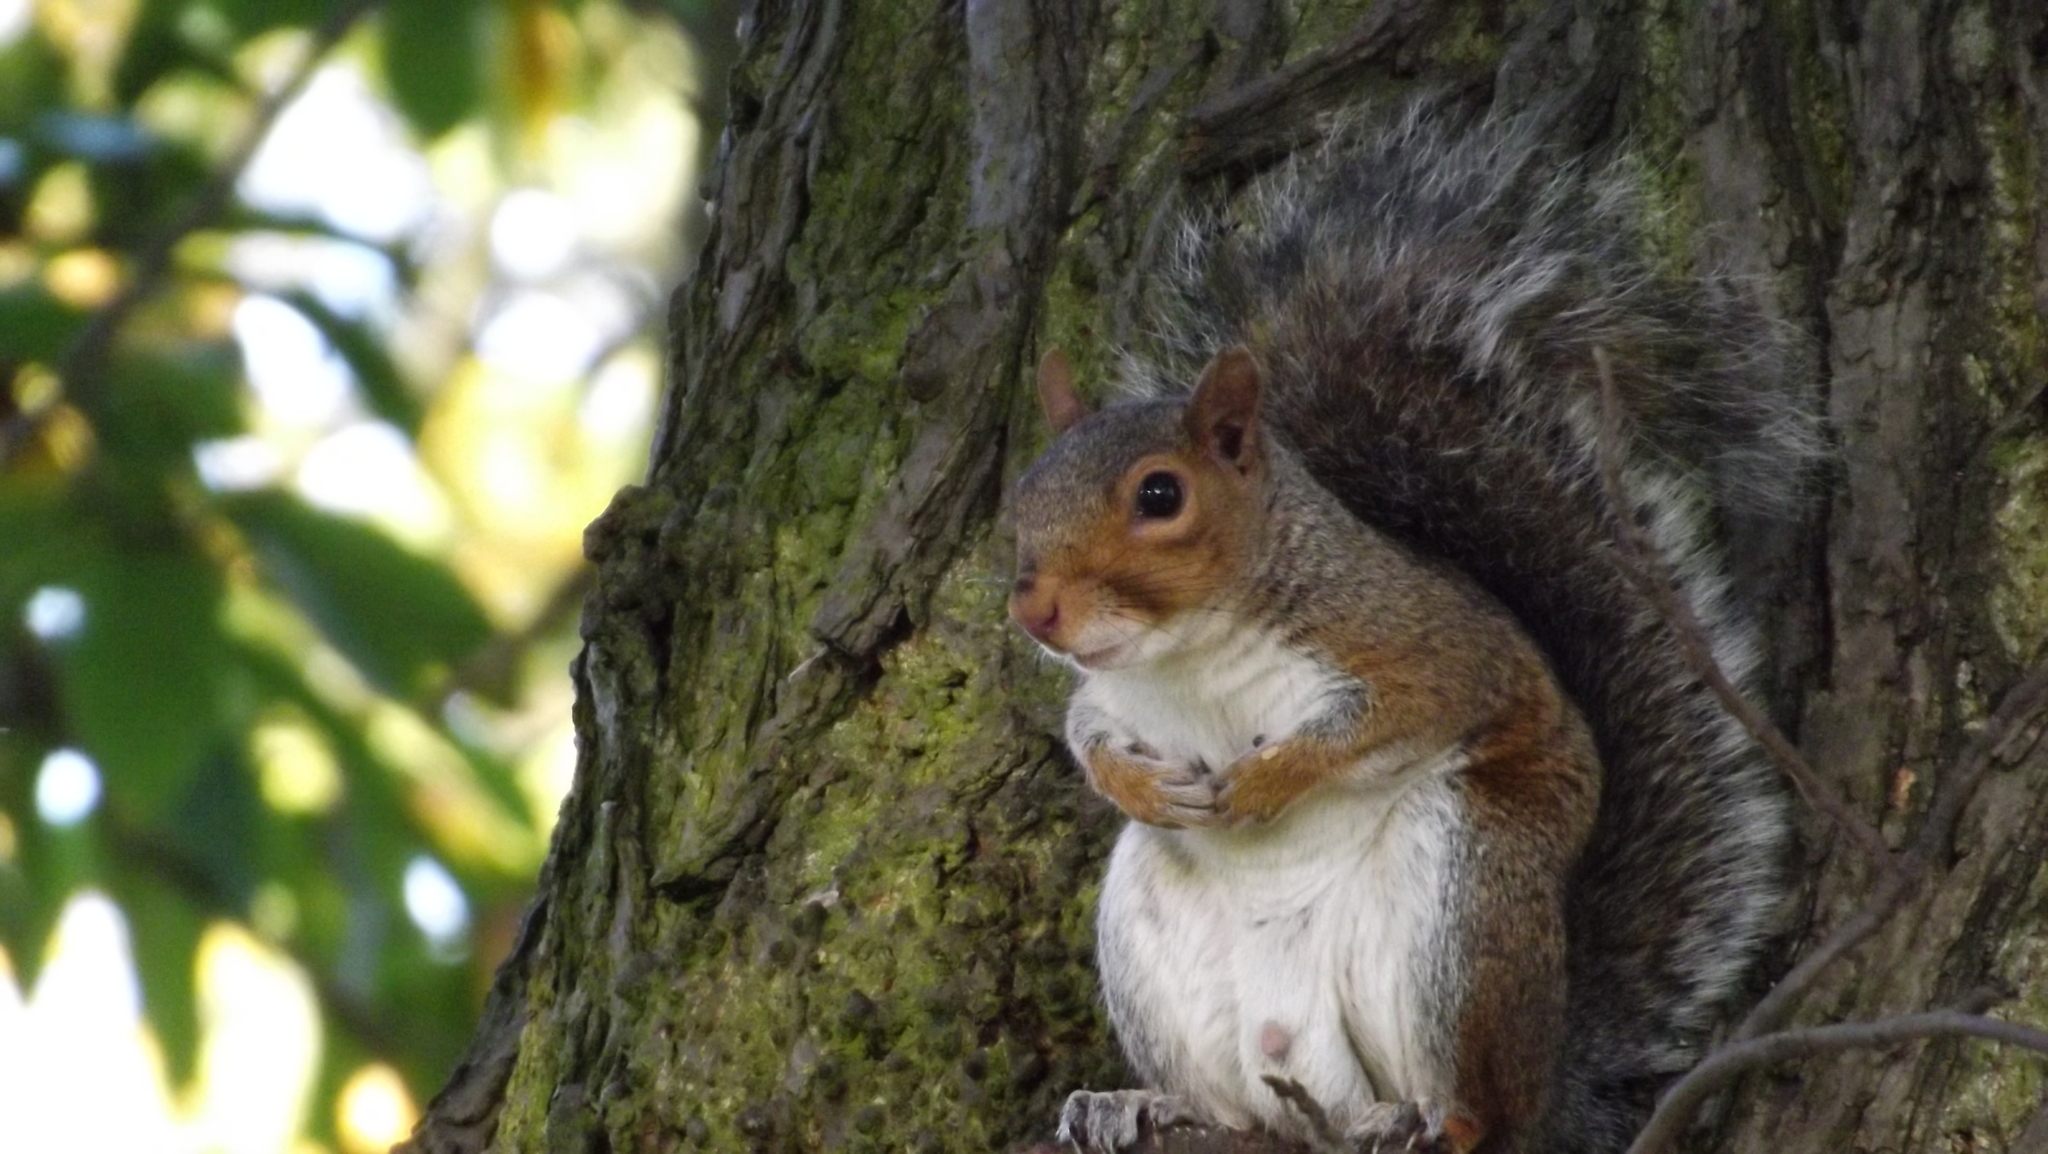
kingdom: Animalia
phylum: Chordata
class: Mammalia
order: Rodentia
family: Sciuridae
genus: Sciurus
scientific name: Sciurus carolinensis
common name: Eastern gray squirrel
